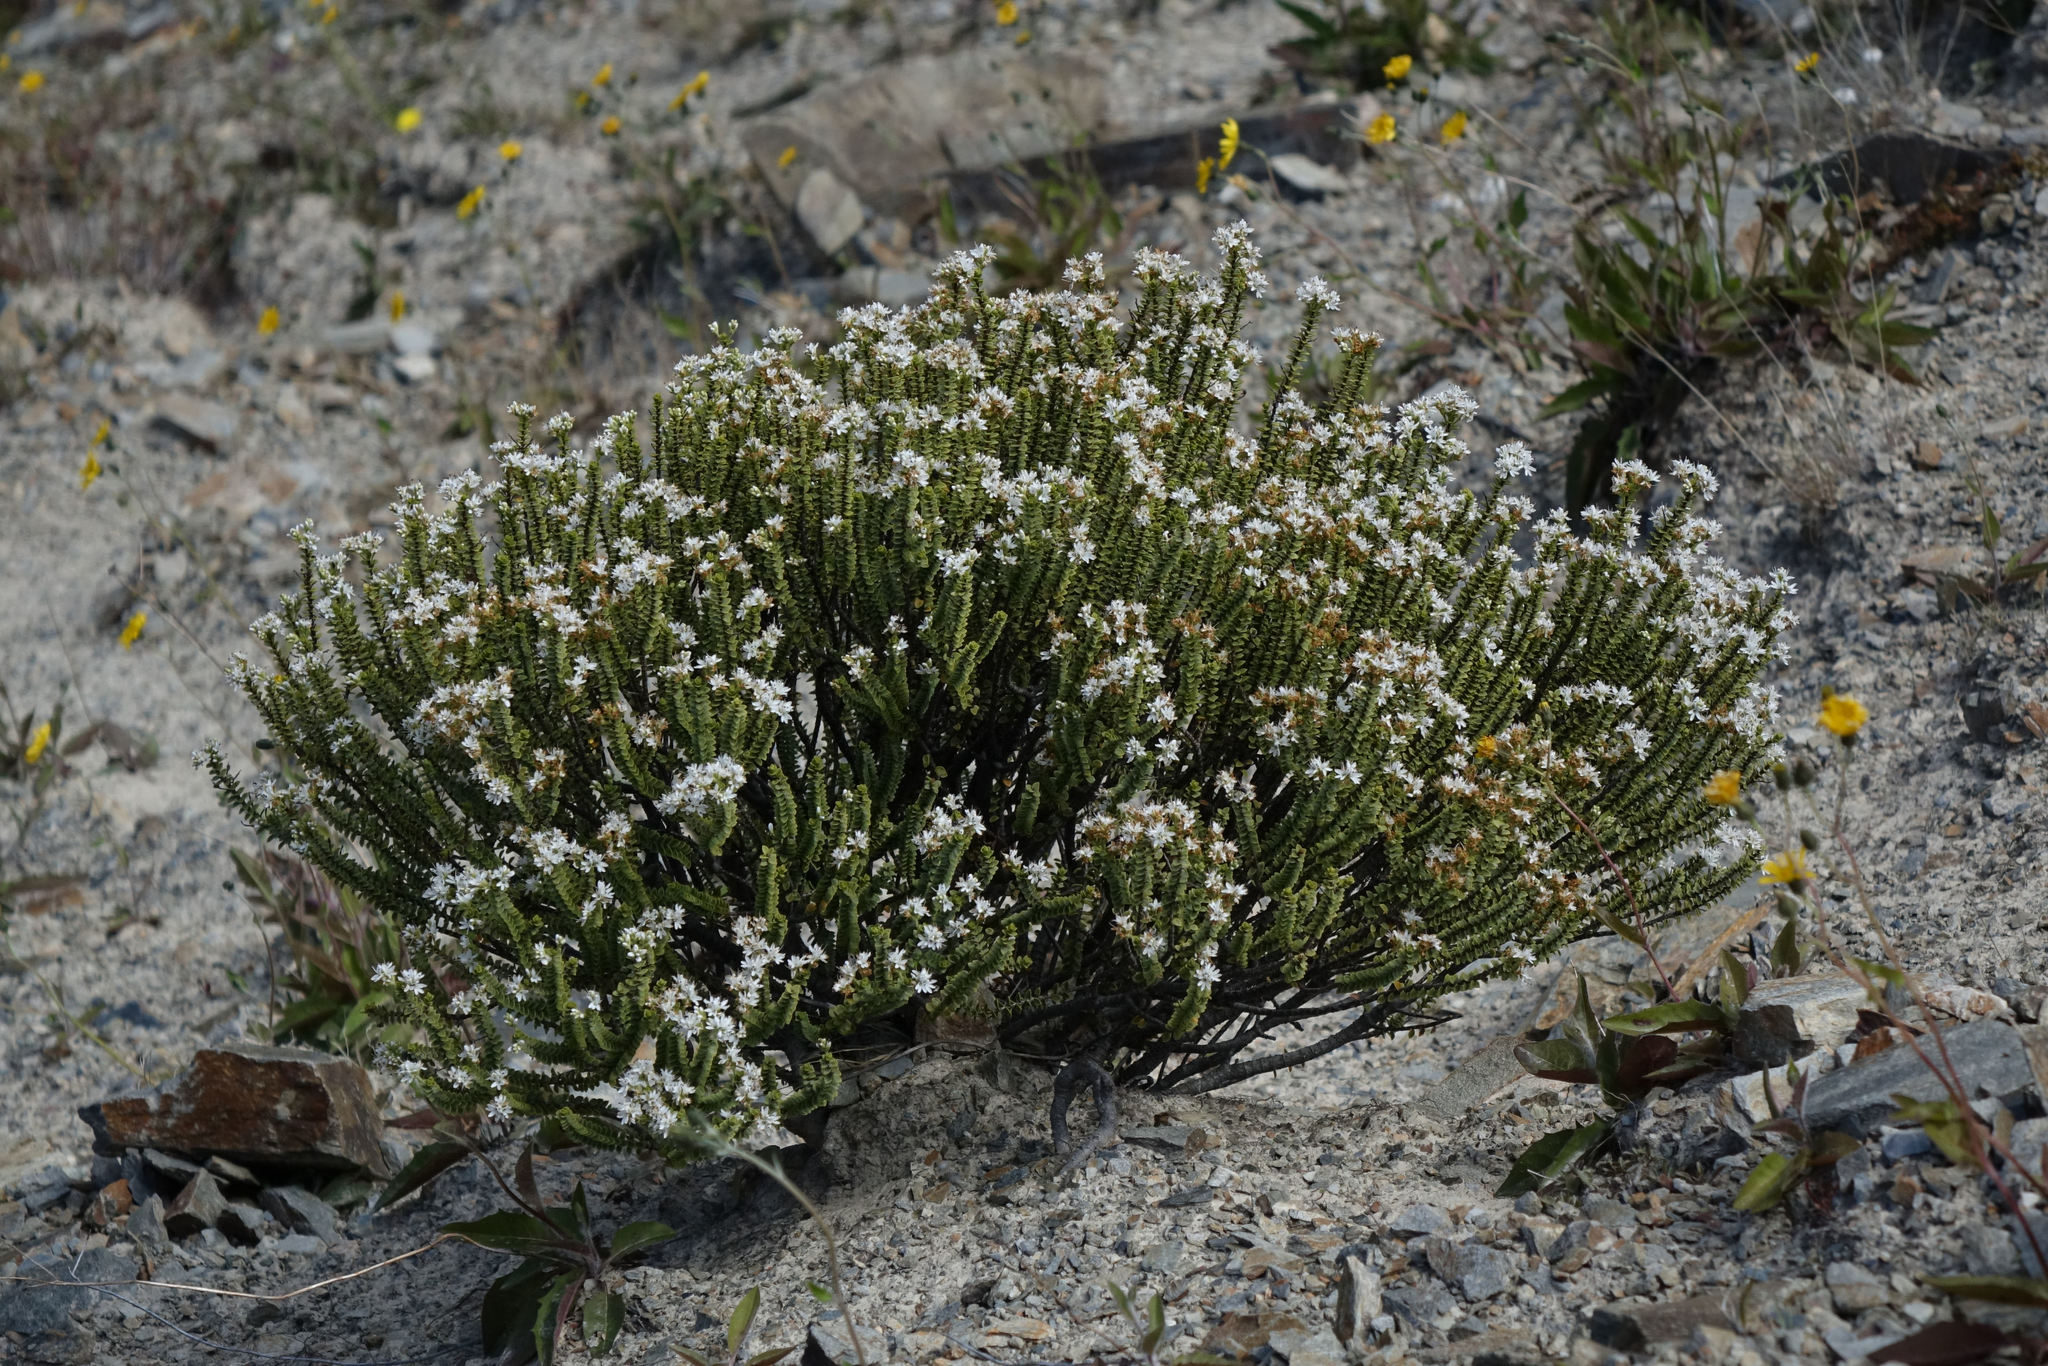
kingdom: Plantae
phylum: Tracheophyta
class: Magnoliopsida
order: Lamiales
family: Plantaginaceae
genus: Veronica
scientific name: Veronica buchananii
